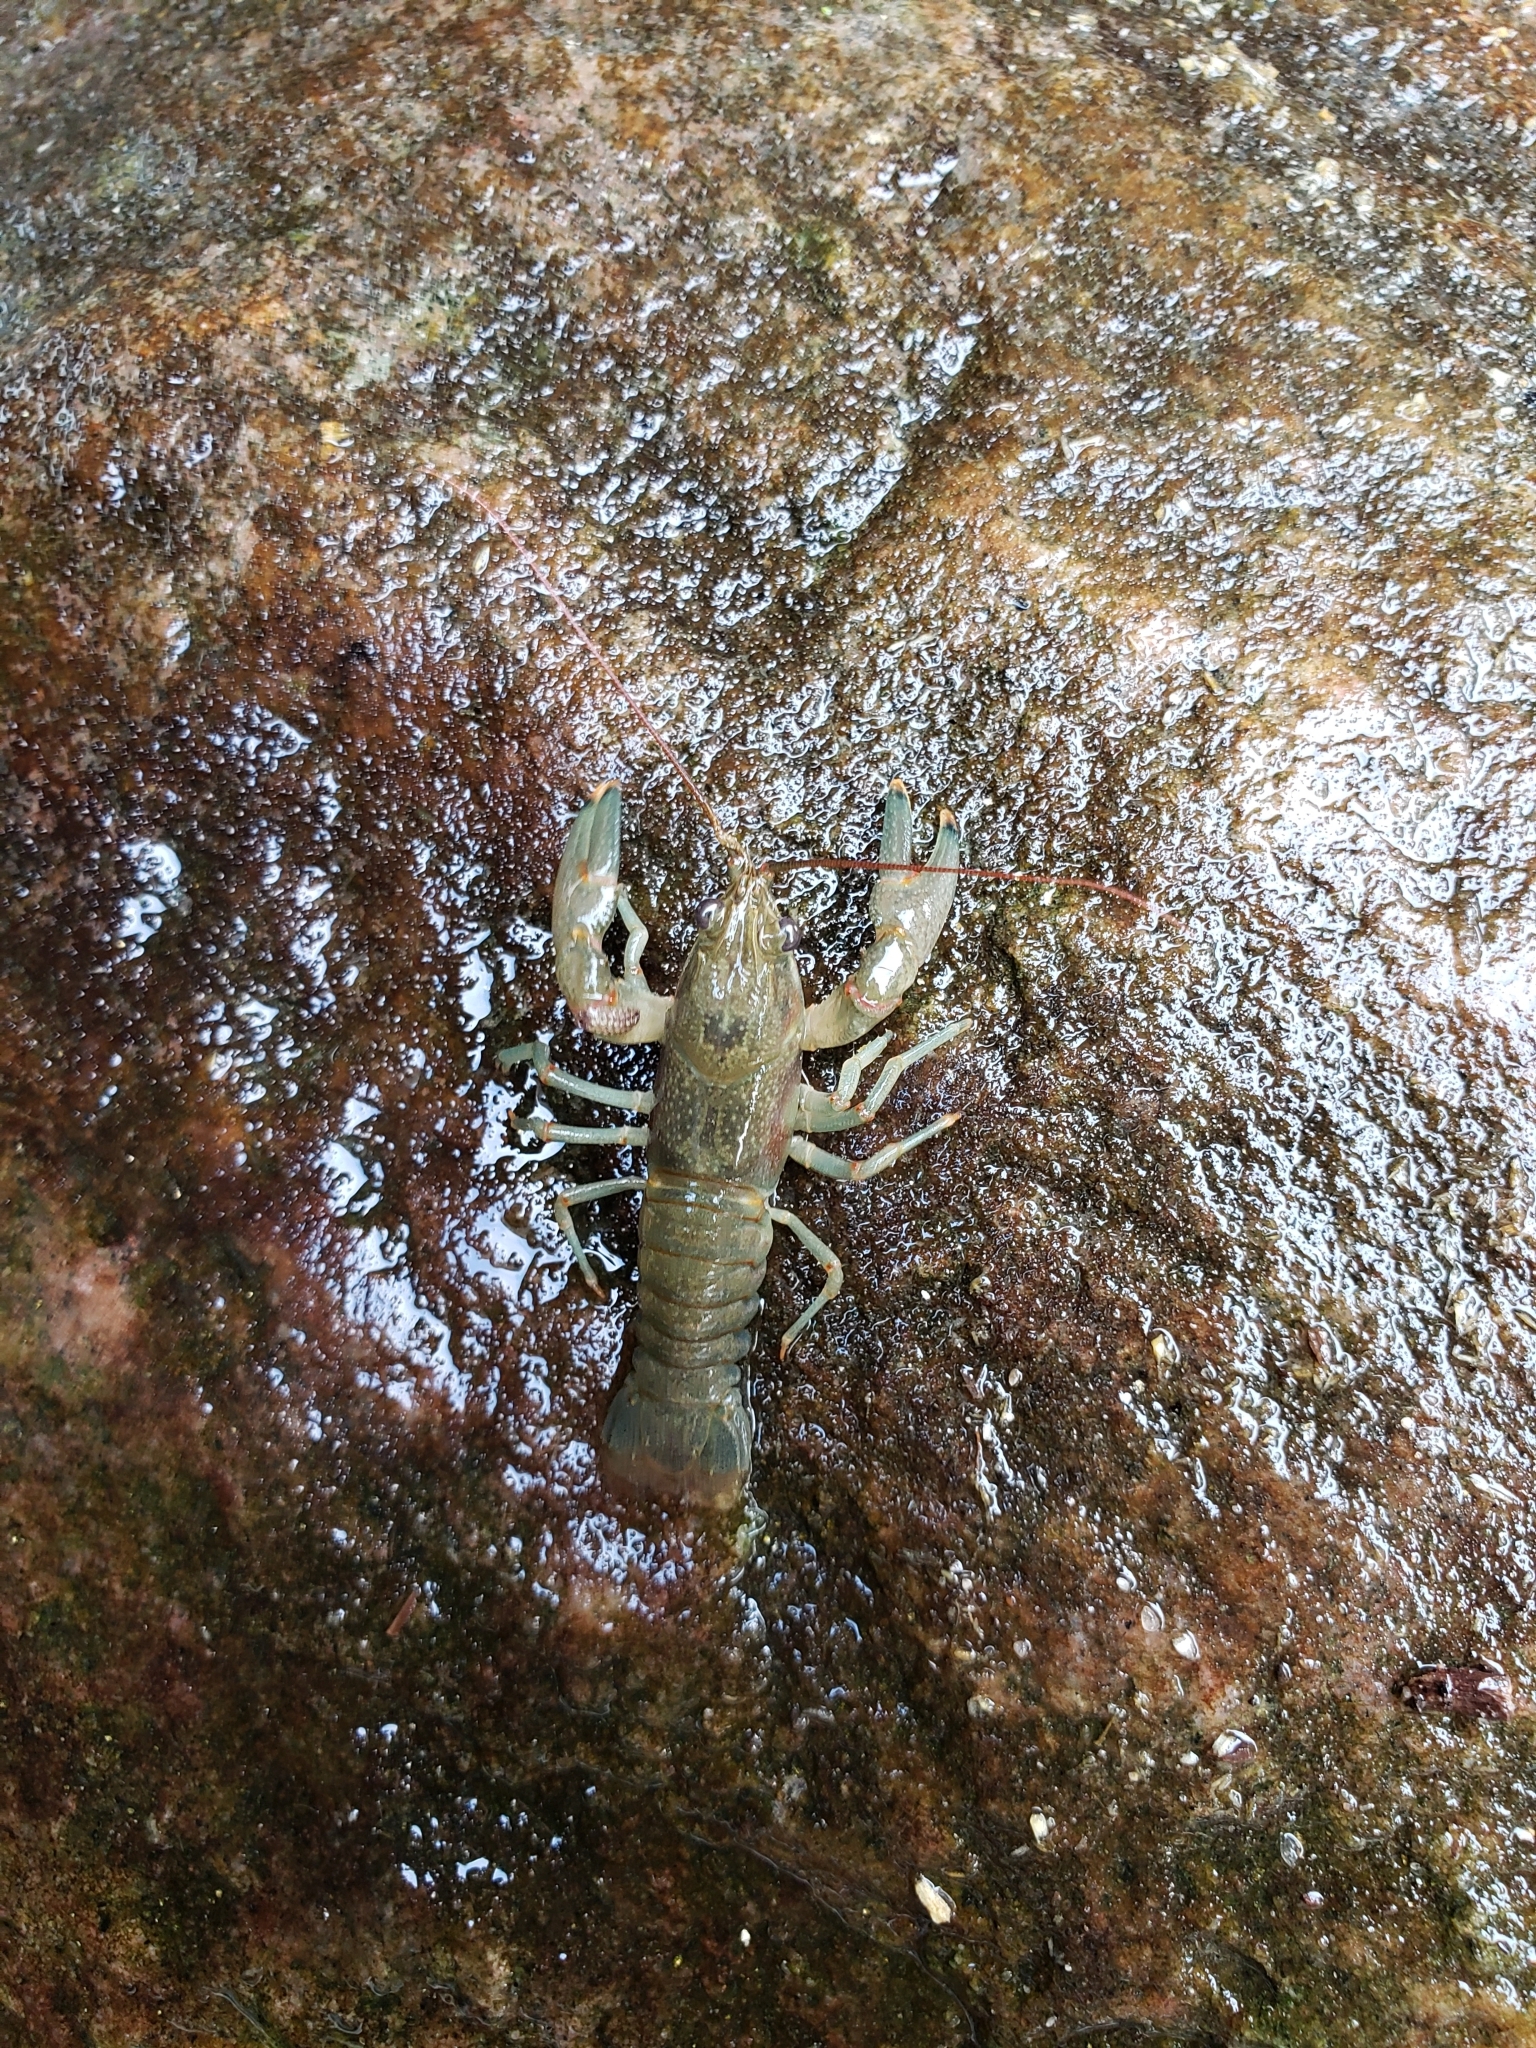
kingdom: Animalia
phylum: Arthropoda
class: Malacostraca
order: Decapoda
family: Cambaridae
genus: Faxonius
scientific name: Faxonius rusticus
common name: Rusty crayfish
